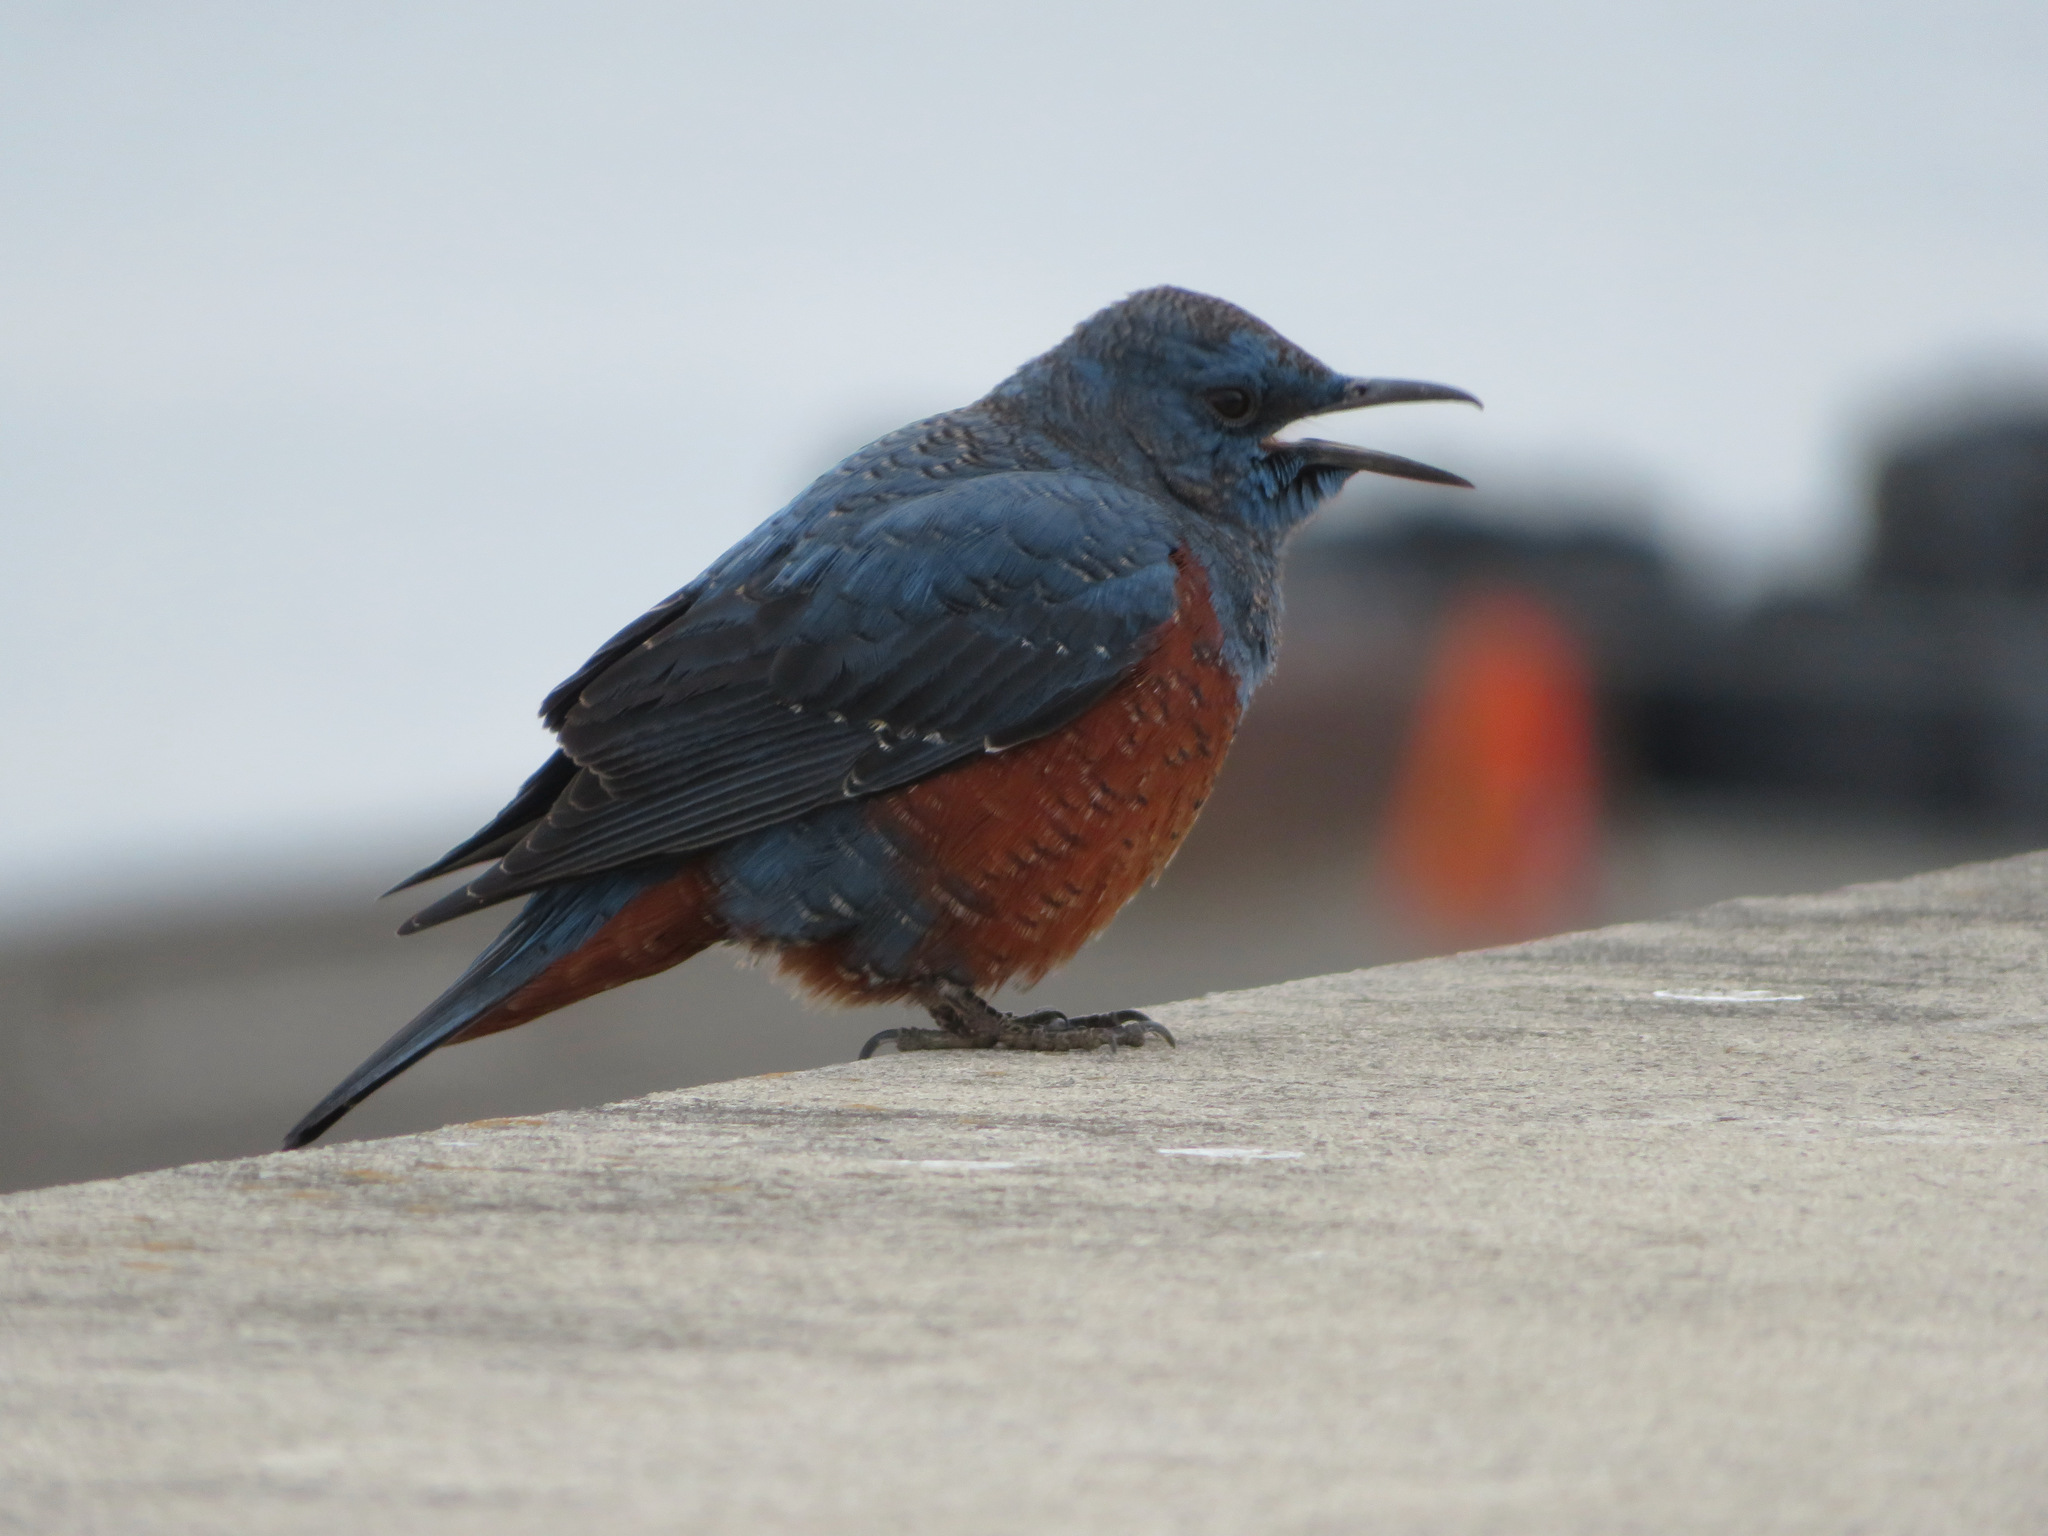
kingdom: Animalia
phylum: Chordata
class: Aves
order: Passeriformes
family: Muscicapidae
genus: Monticola
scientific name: Monticola solitarius
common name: Blue rock thrush
